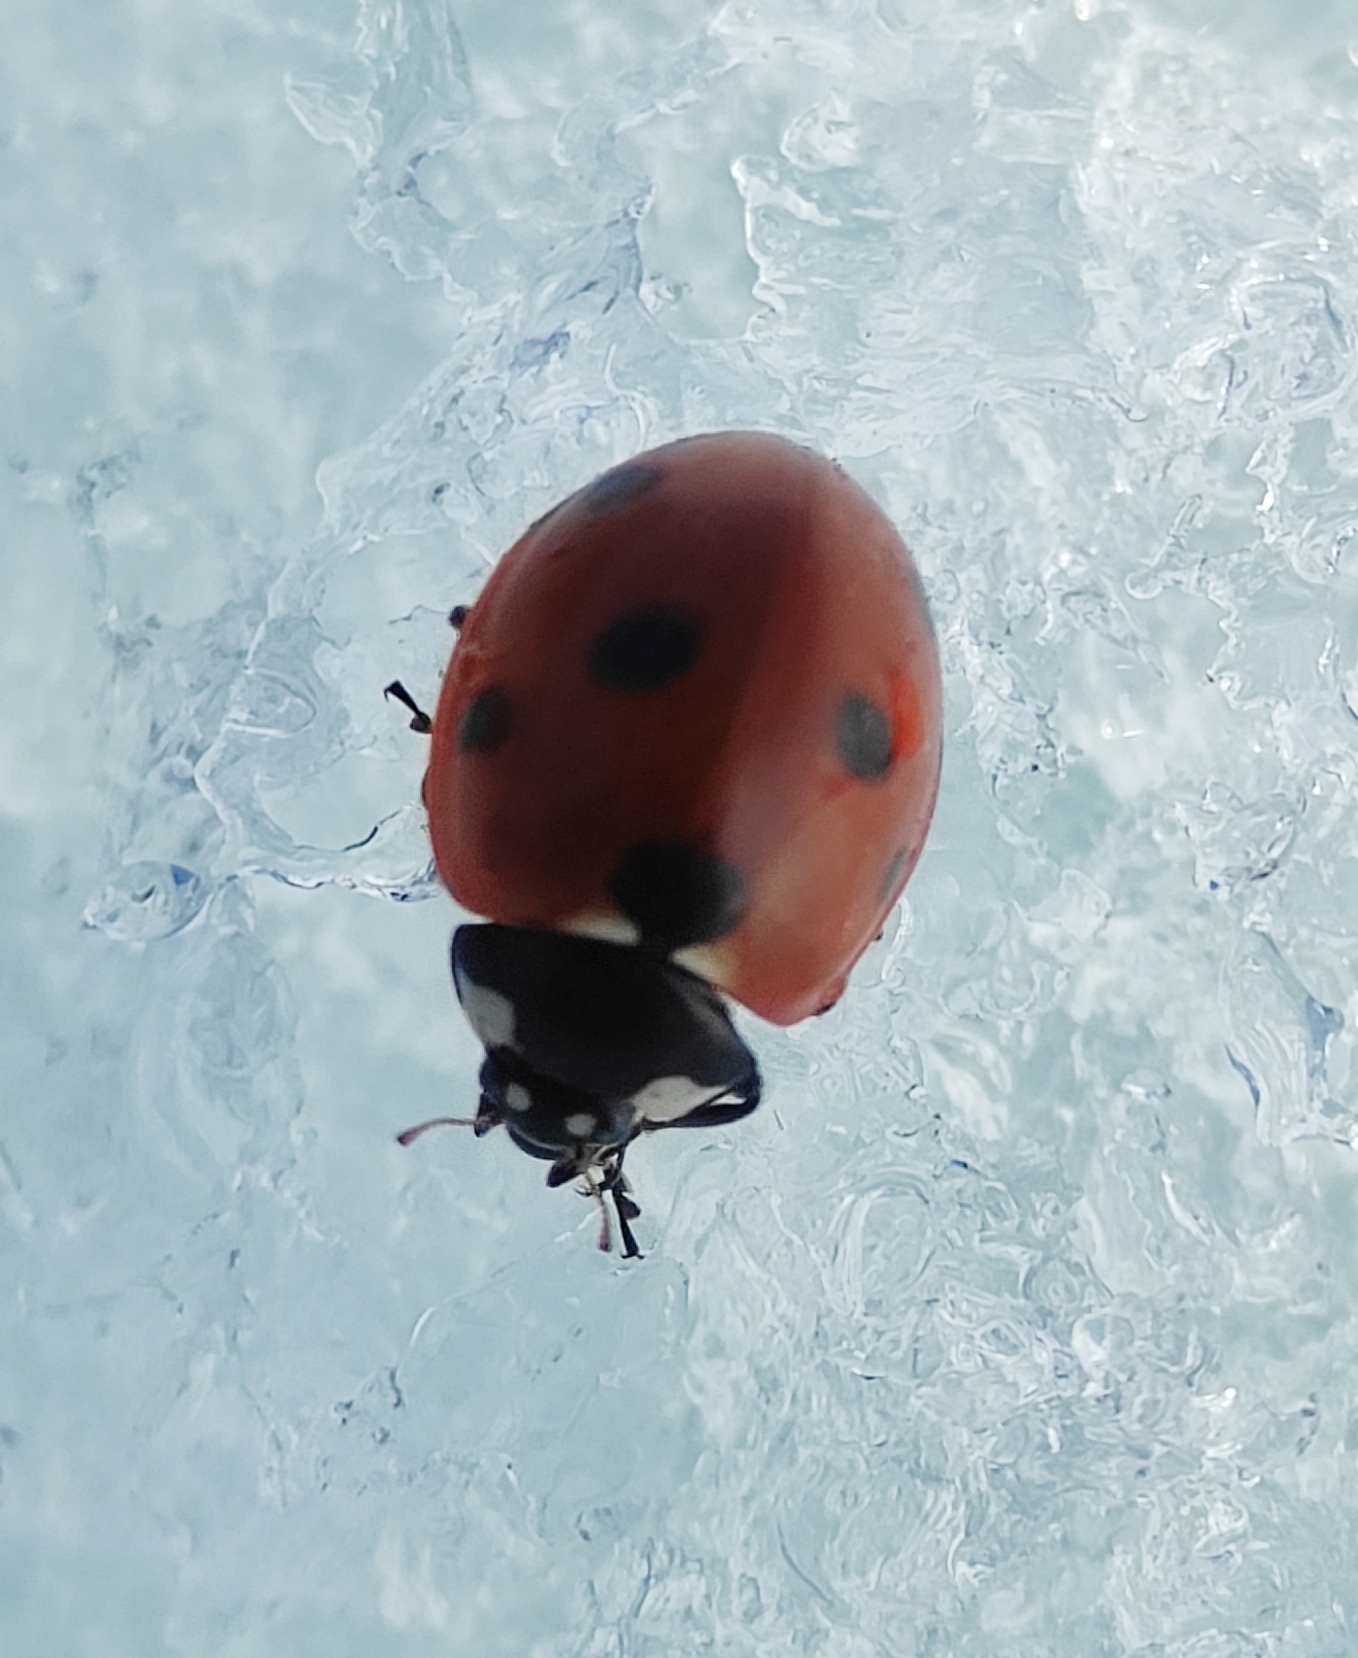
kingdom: Animalia
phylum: Arthropoda
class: Insecta
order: Coleoptera
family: Coccinellidae
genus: Coccinella
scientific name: Coccinella septempunctata
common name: Sevenspotted lady beetle
